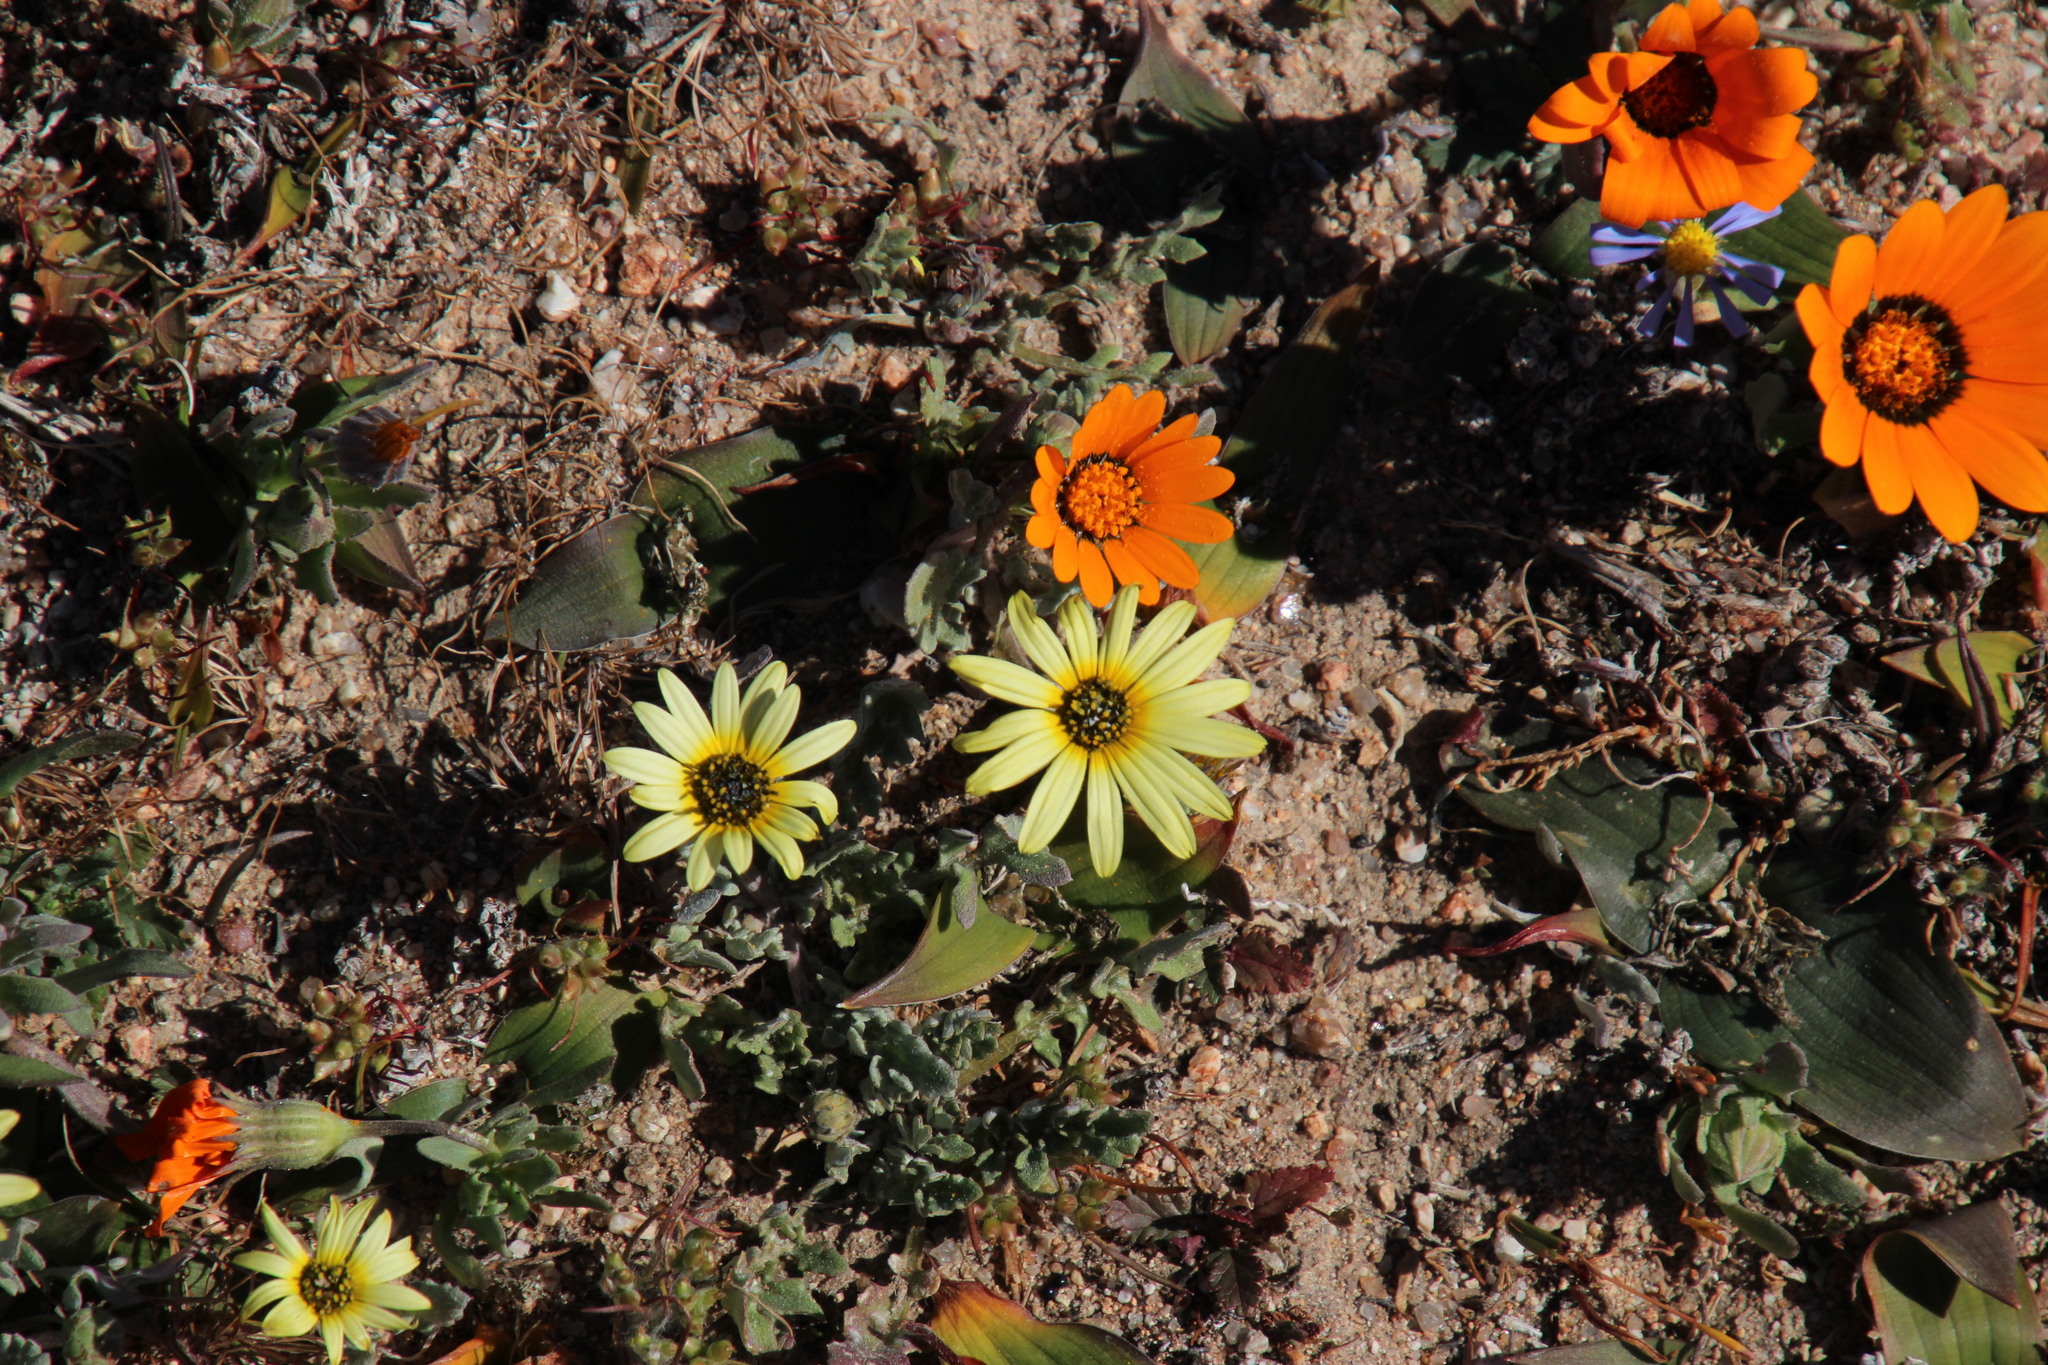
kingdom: Plantae
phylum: Tracheophyta
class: Magnoliopsida
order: Asterales
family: Asteraceae
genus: Arctotheca
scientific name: Arctotheca calendula
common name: Capeweed
